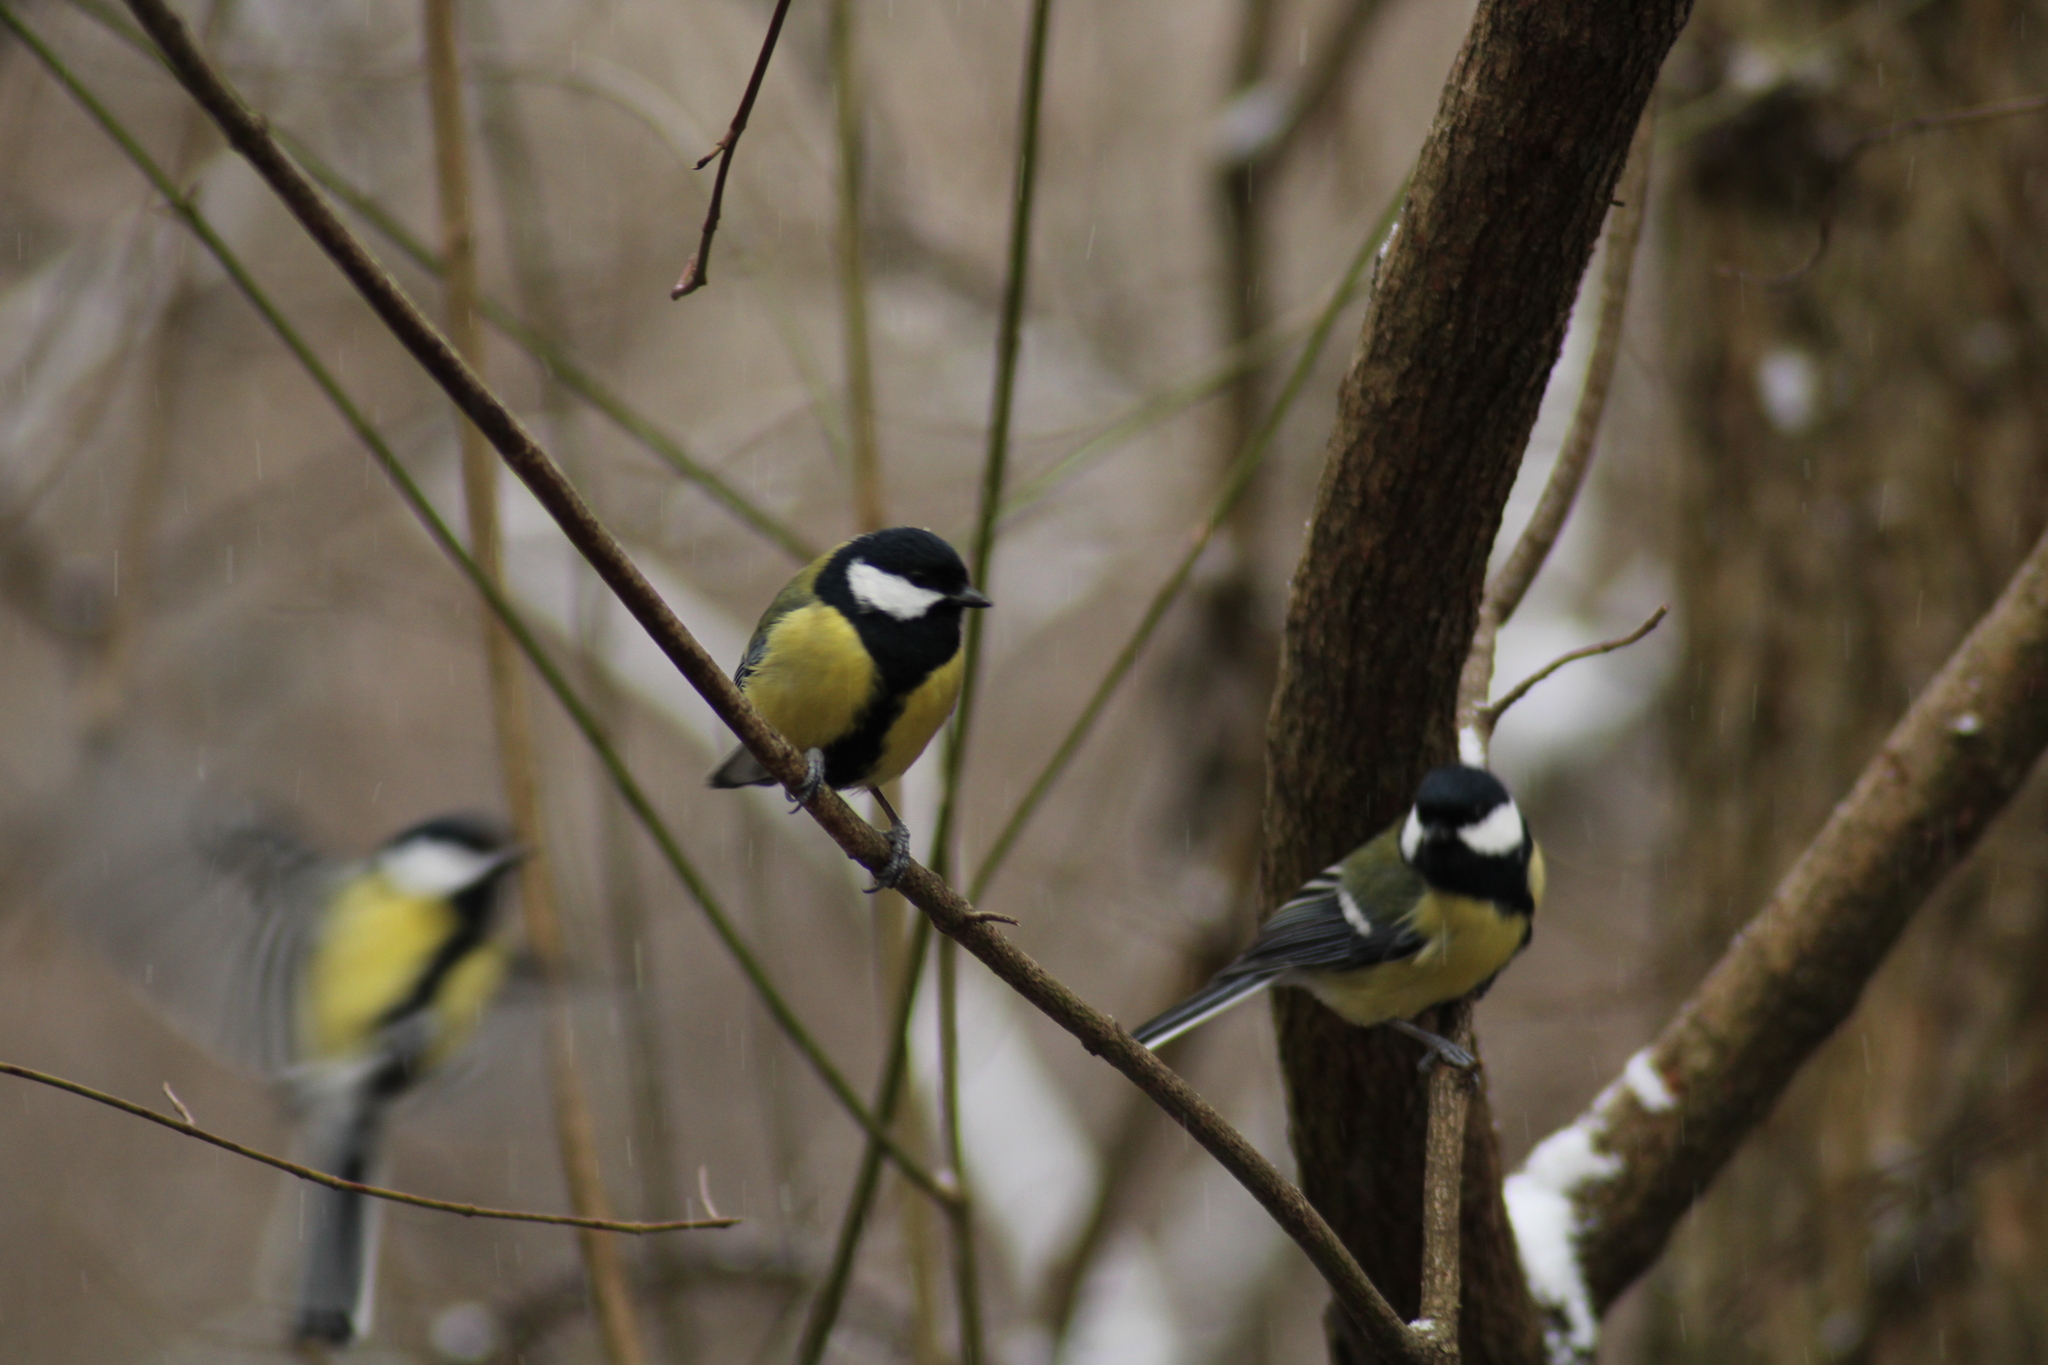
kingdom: Animalia
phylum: Chordata
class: Aves
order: Passeriformes
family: Paridae
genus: Parus
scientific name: Parus major
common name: Great tit
